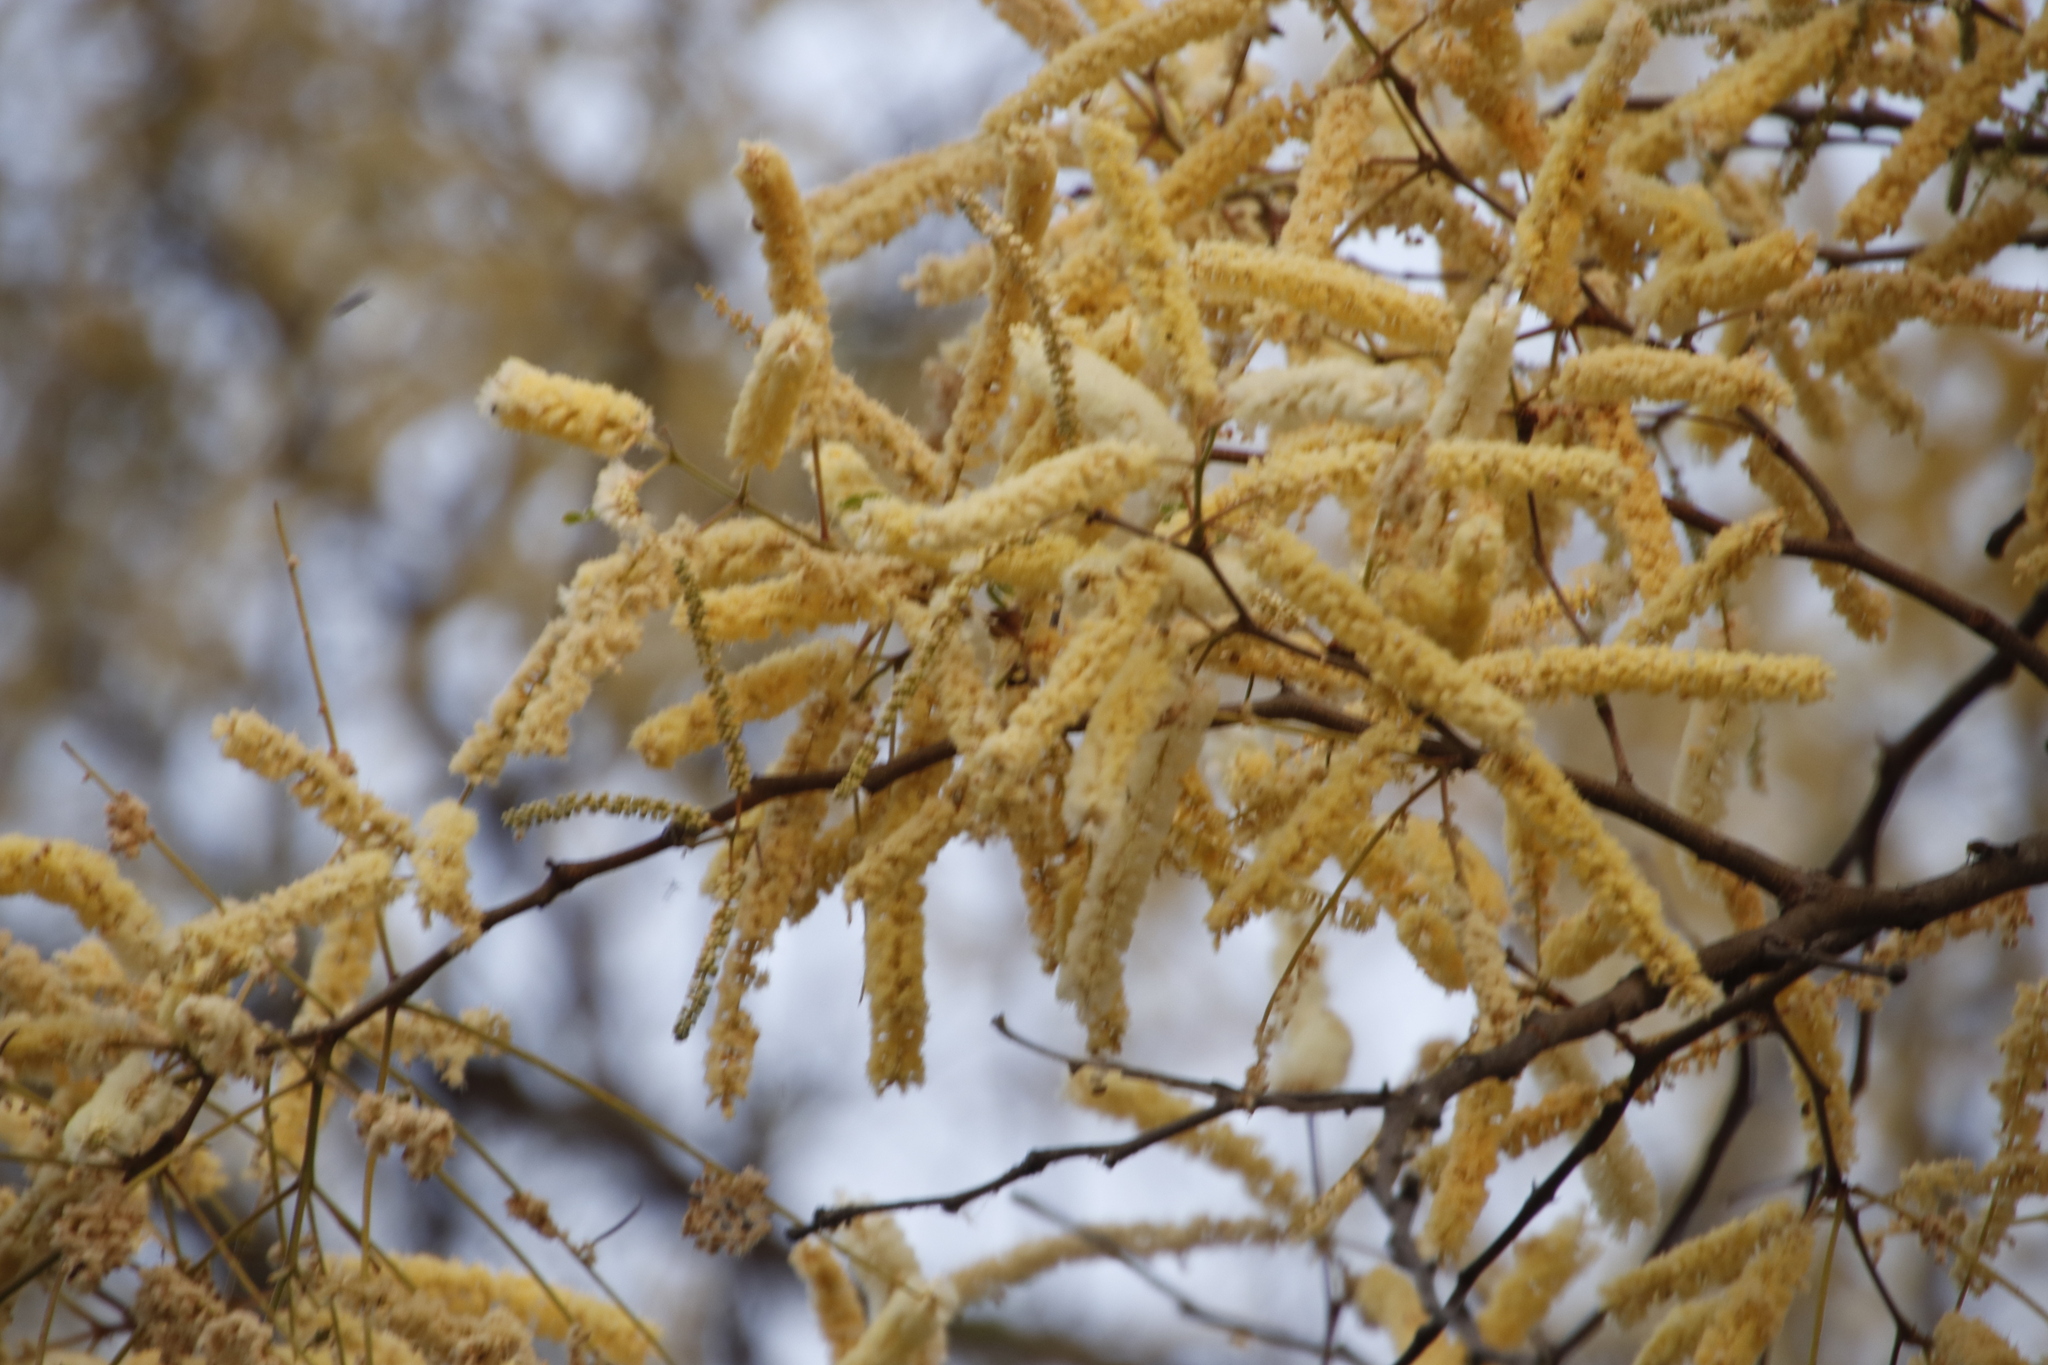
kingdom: Plantae
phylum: Tracheophyta
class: Magnoliopsida
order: Fabales
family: Fabaceae
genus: Senegalia
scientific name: Senegalia nigrescens
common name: Knobthorn
